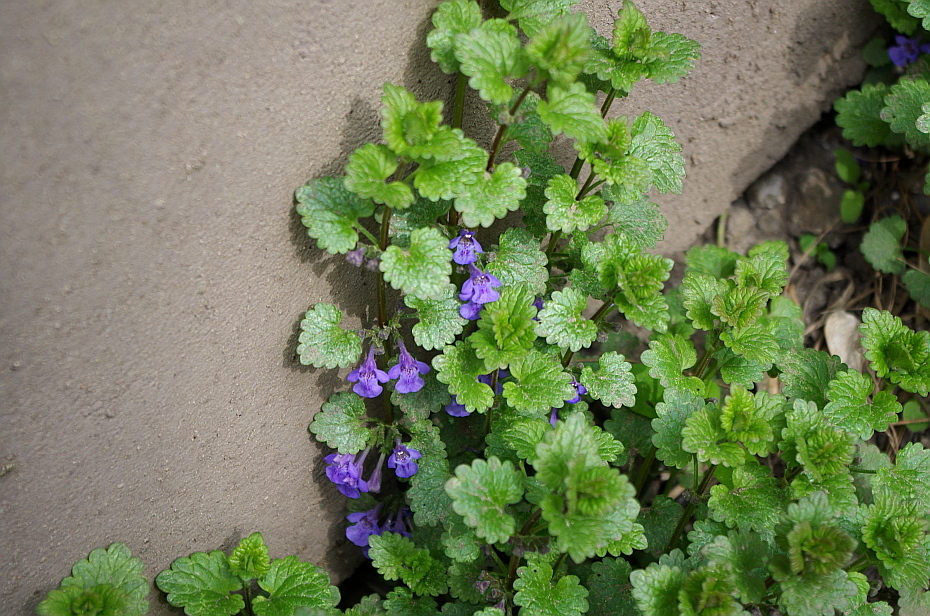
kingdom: Plantae
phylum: Tracheophyta
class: Magnoliopsida
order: Lamiales
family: Lamiaceae
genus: Glechoma
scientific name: Glechoma hederacea
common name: Ground ivy
